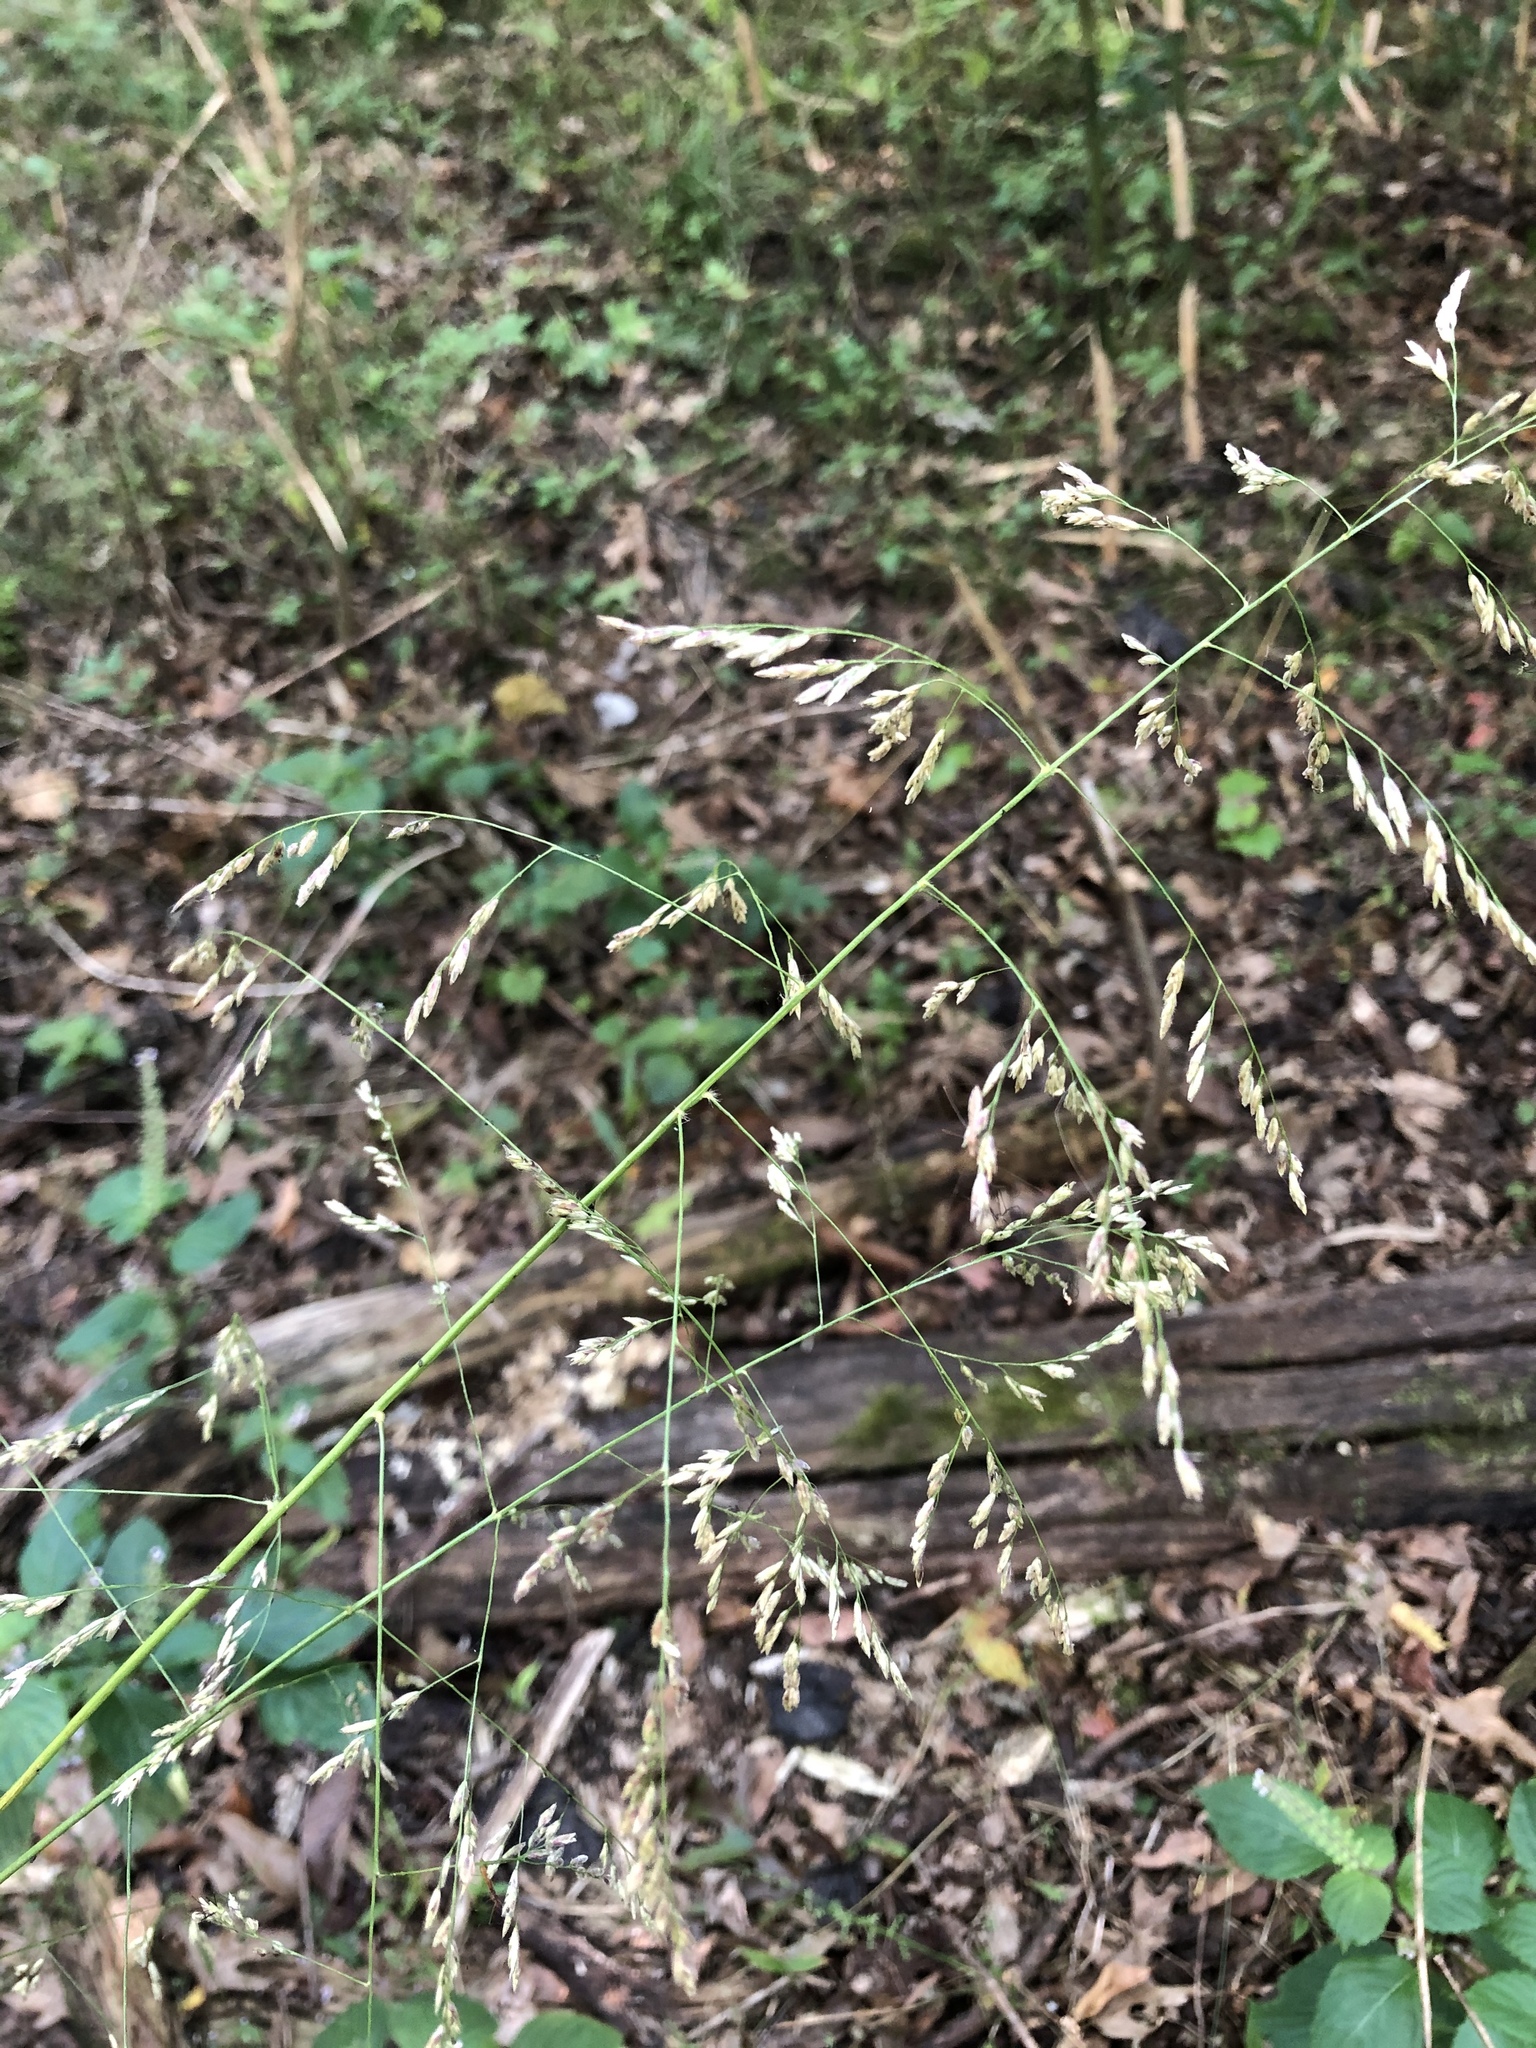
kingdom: Plantae
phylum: Tracheophyta
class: Liliopsida
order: Poales
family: Poaceae
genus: Tridens
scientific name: Tridens flavus
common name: Purpletop
